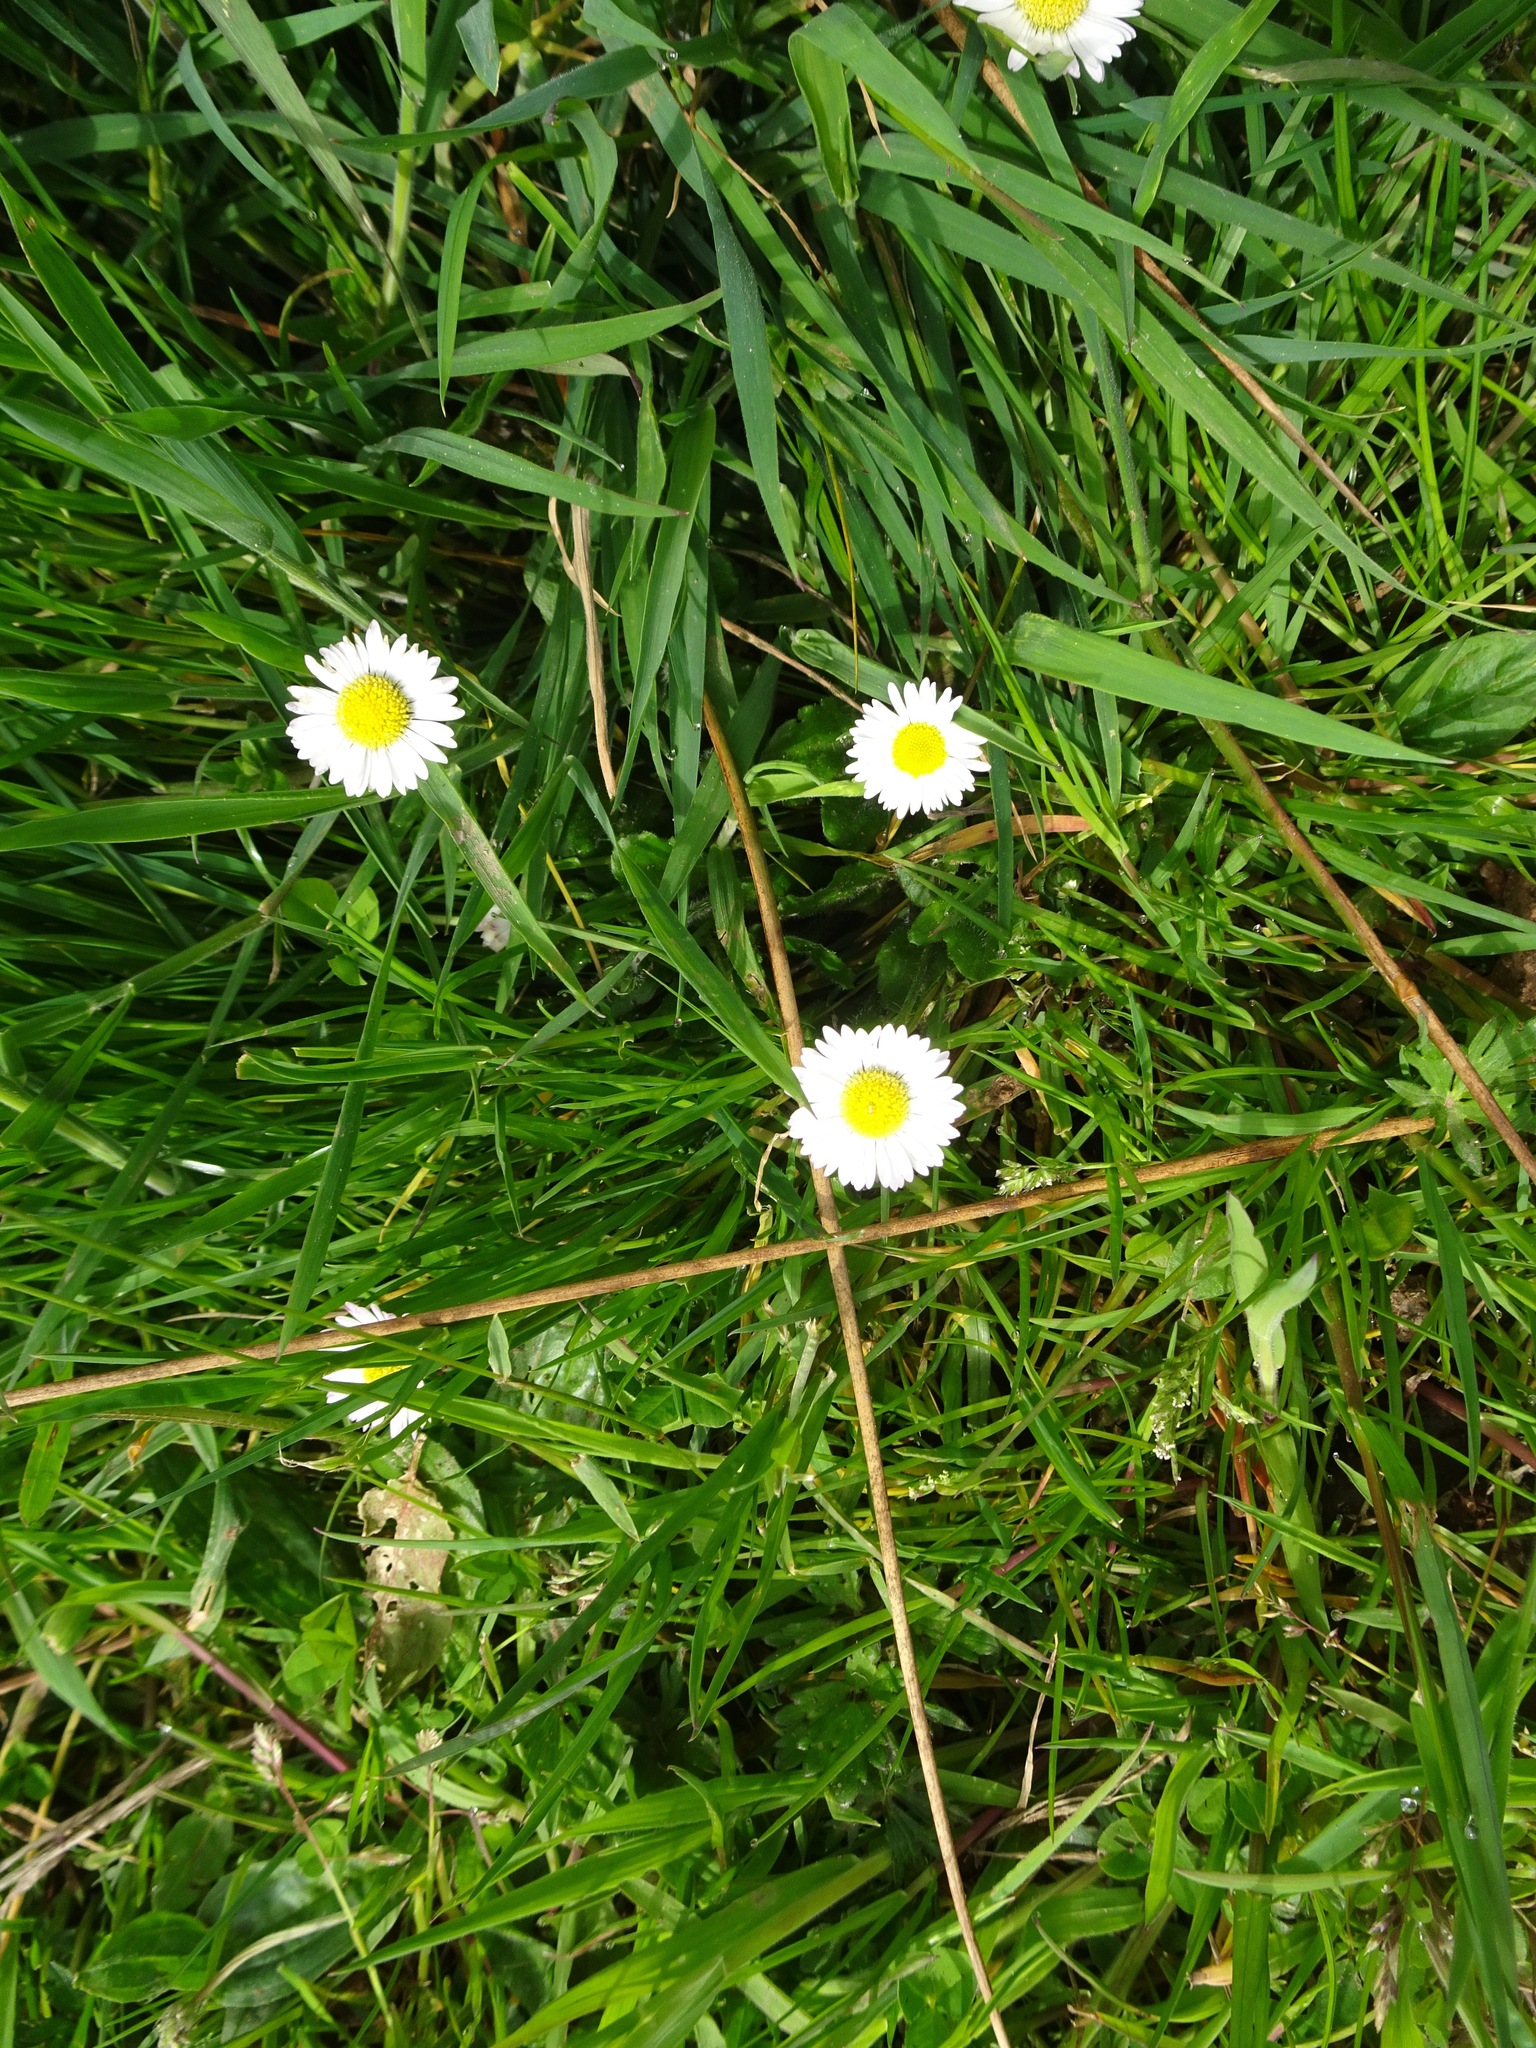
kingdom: Plantae
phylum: Tracheophyta
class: Magnoliopsida
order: Asterales
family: Asteraceae
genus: Bellis
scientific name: Bellis perennis
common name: Lawndaisy
